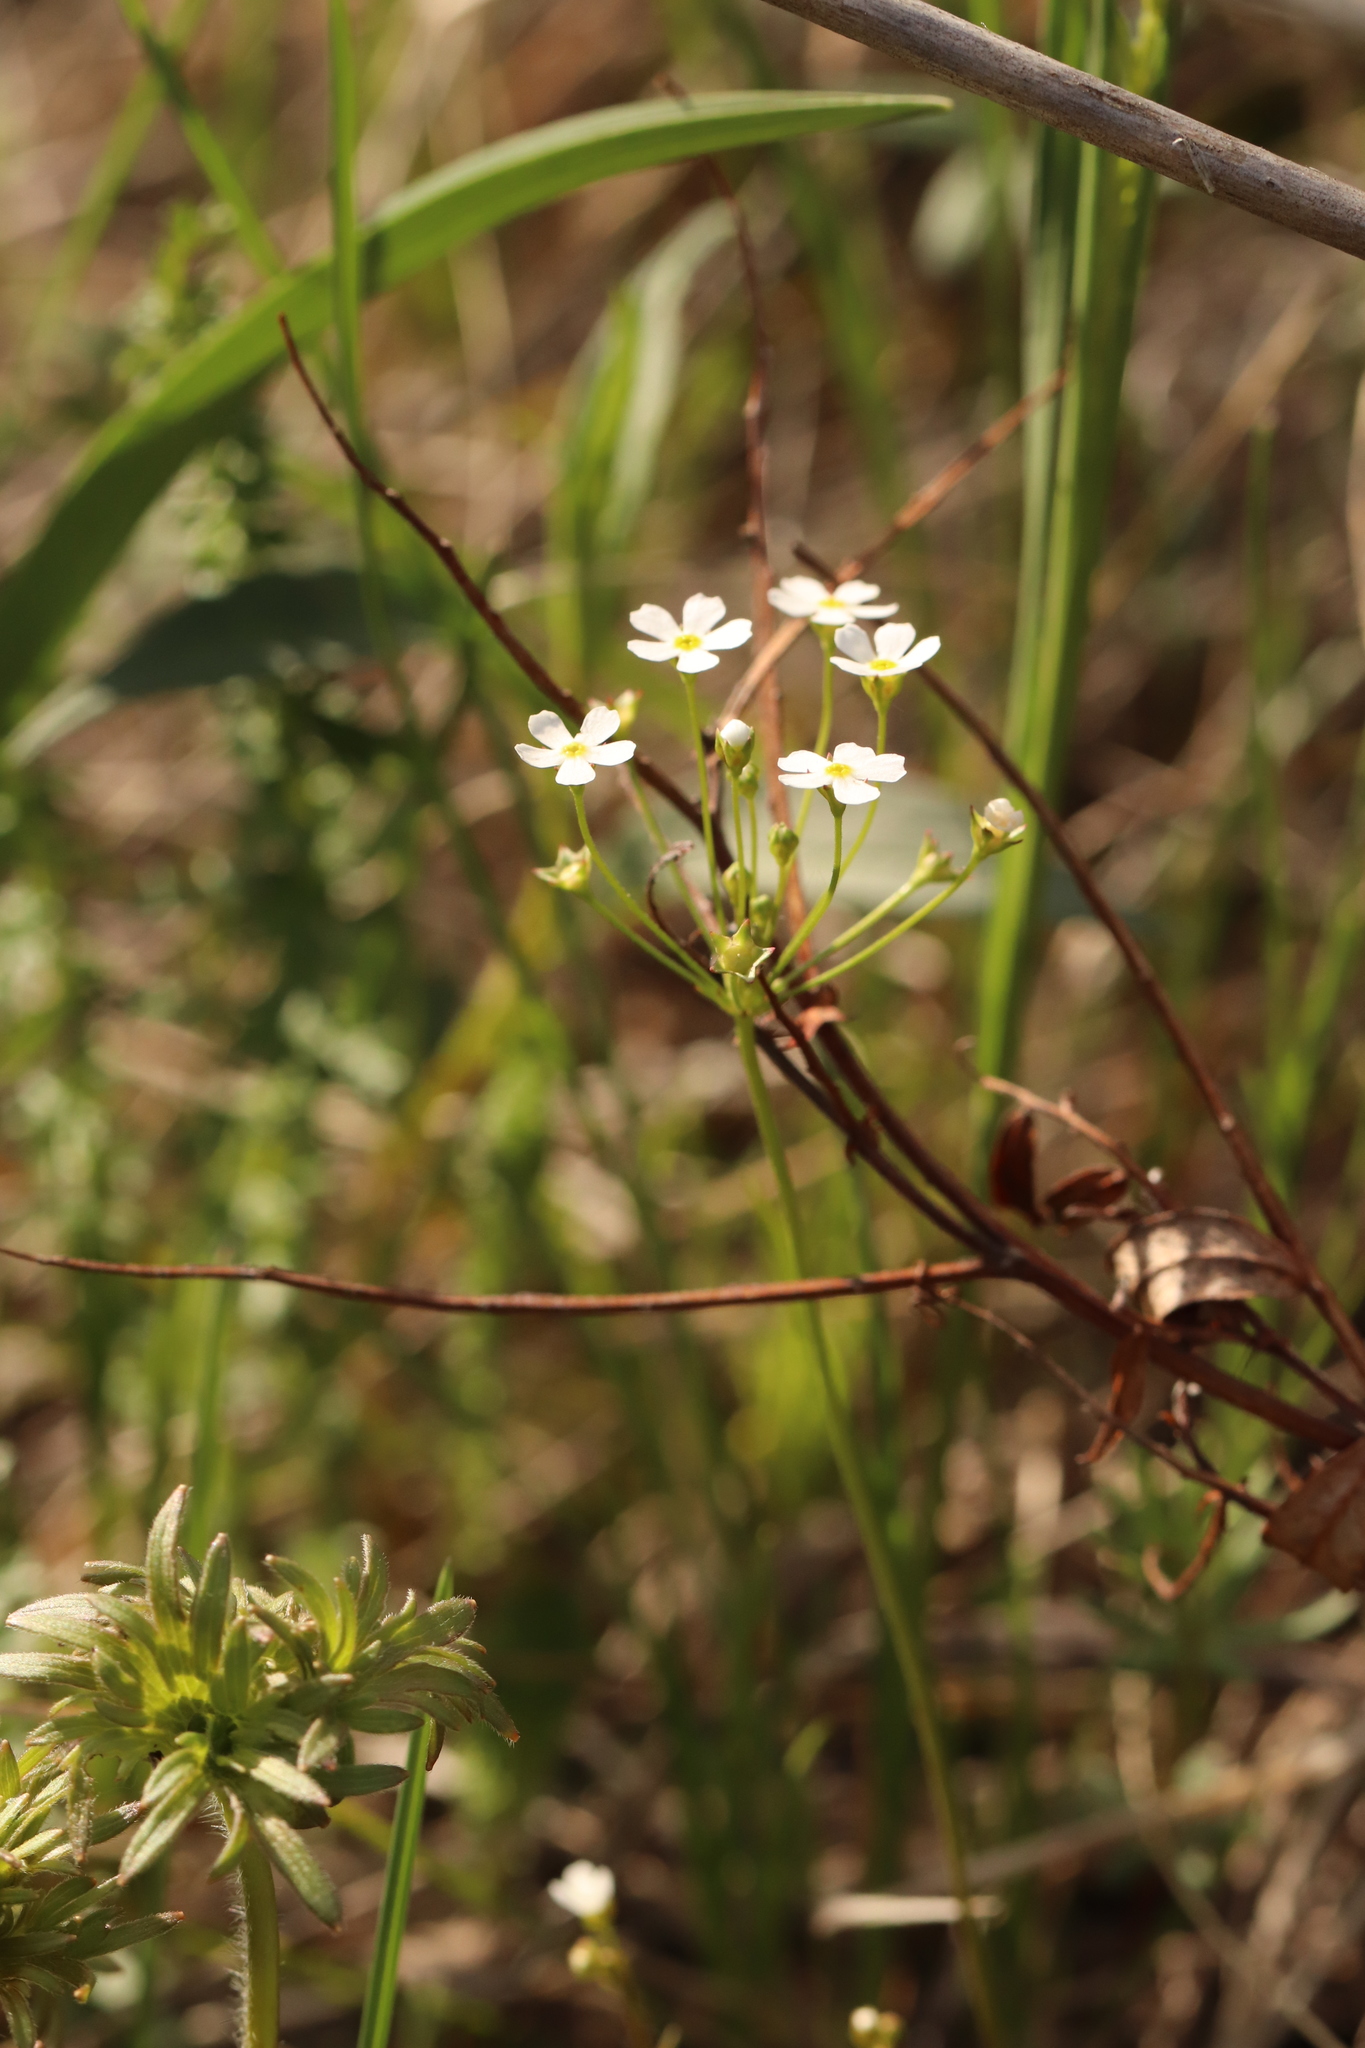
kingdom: Plantae
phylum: Tracheophyta
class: Magnoliopsida
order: Ericales
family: Primulaceae
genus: Androsace
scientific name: Androsace septentrionalis
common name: Hairy northern fairy-candelabra
